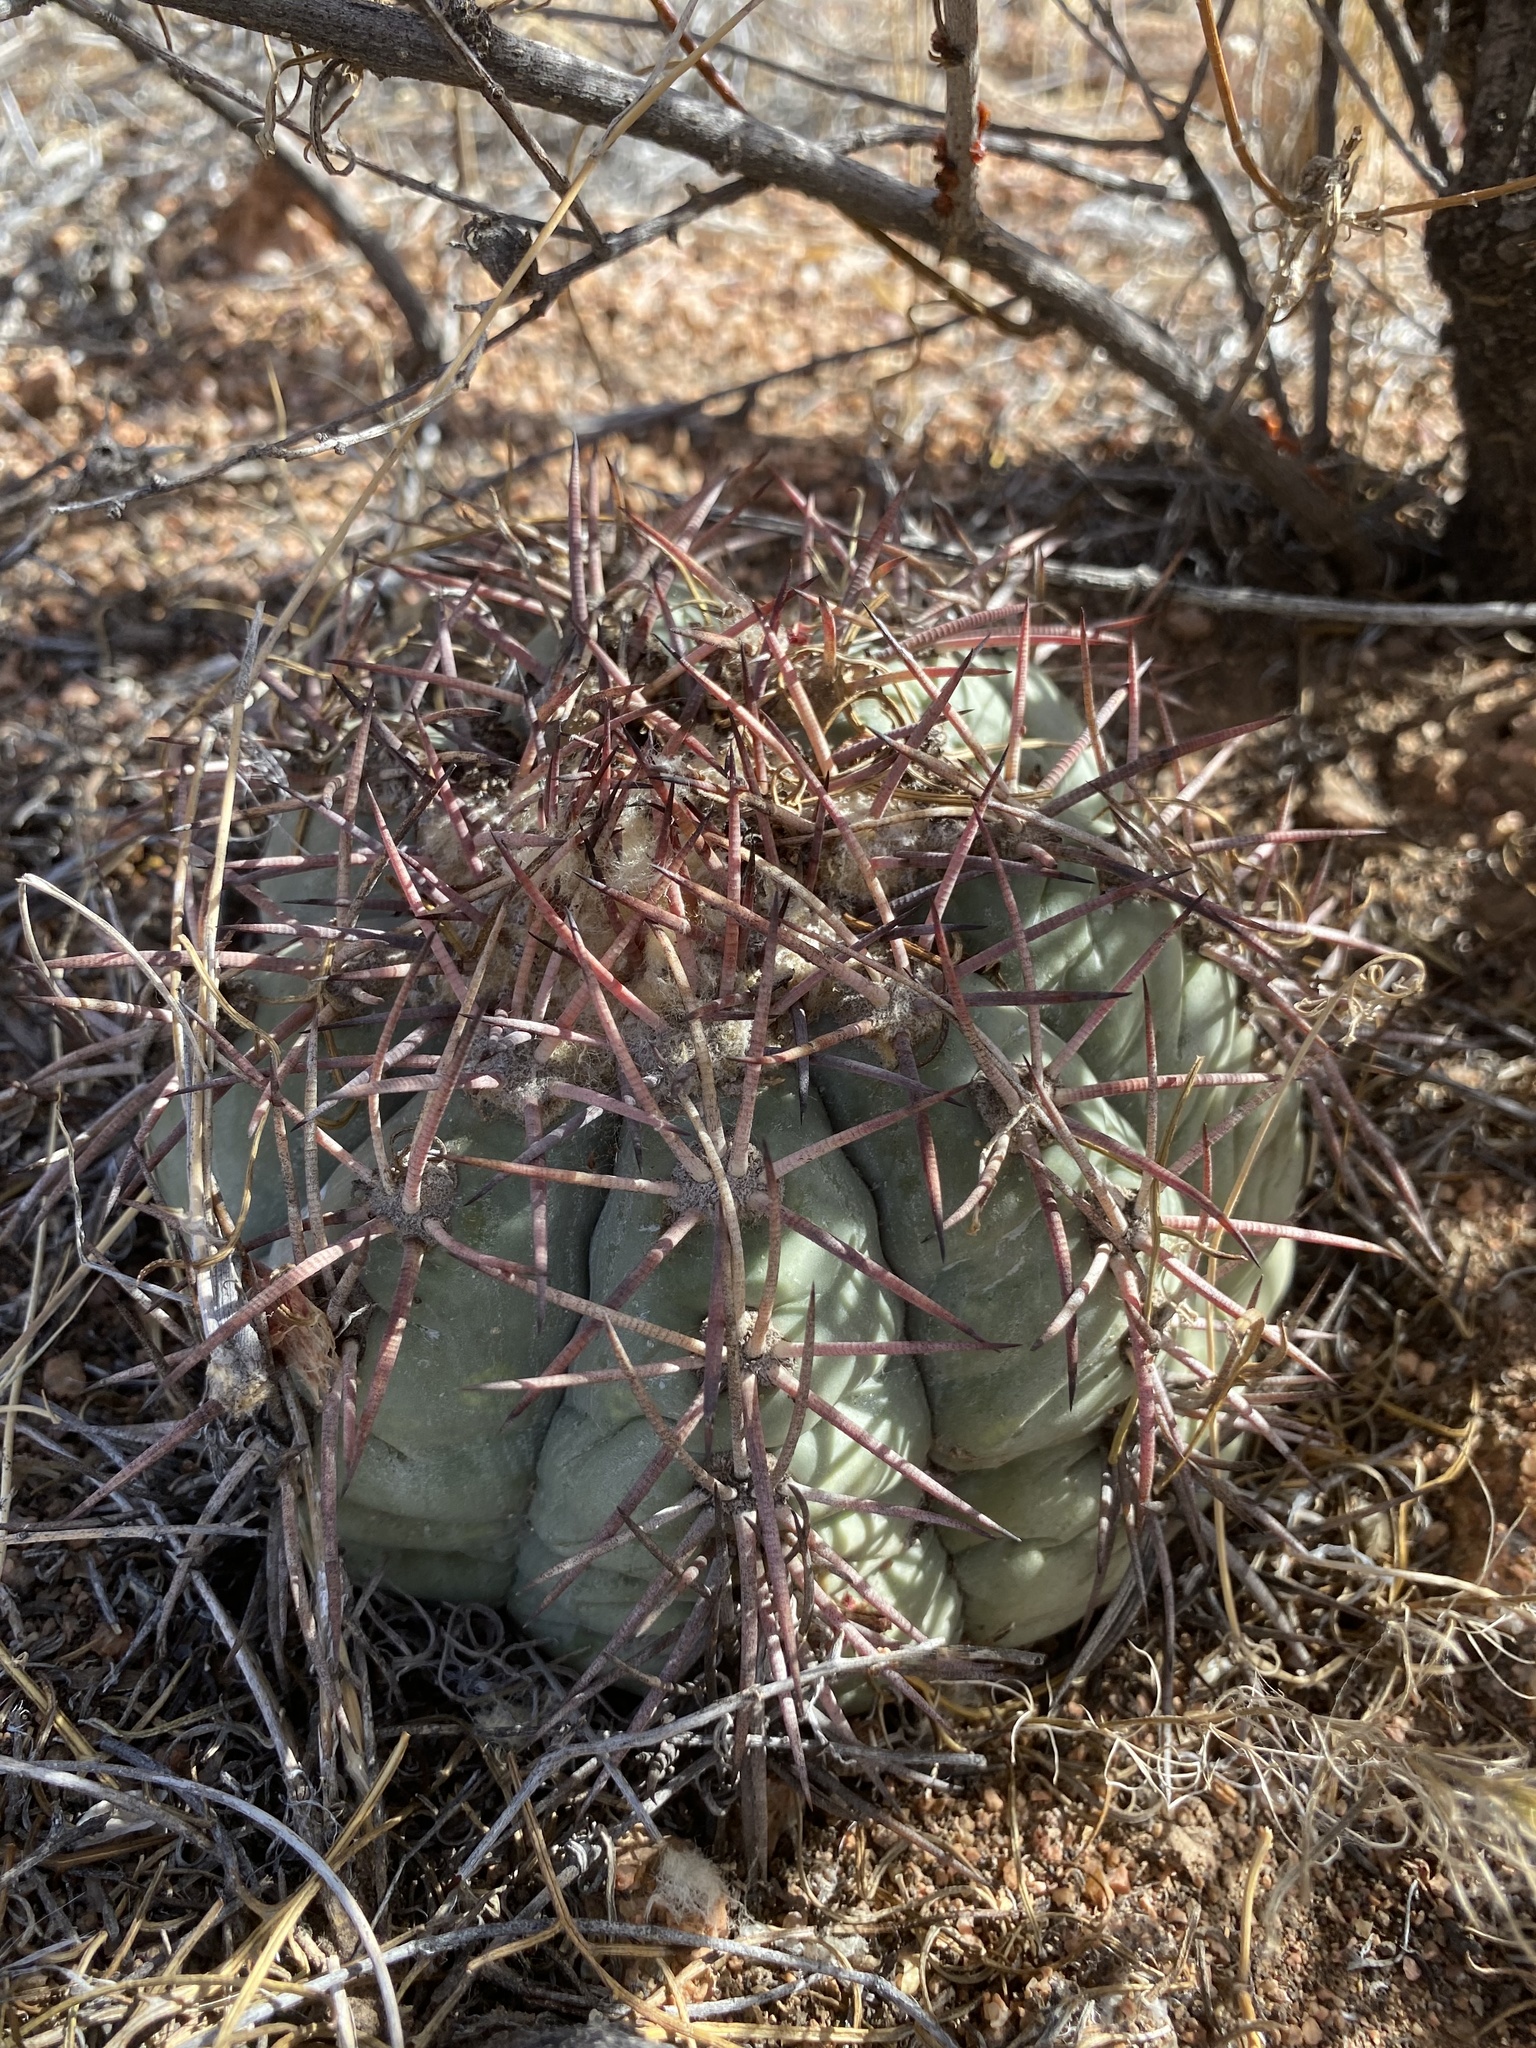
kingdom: Plantae
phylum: Tracheophyta
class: Magnoliopsida
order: Caryophyllales
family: Cactaceae
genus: Echinocactus
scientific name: Echinocactus horizonthalonius
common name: Devilshead
